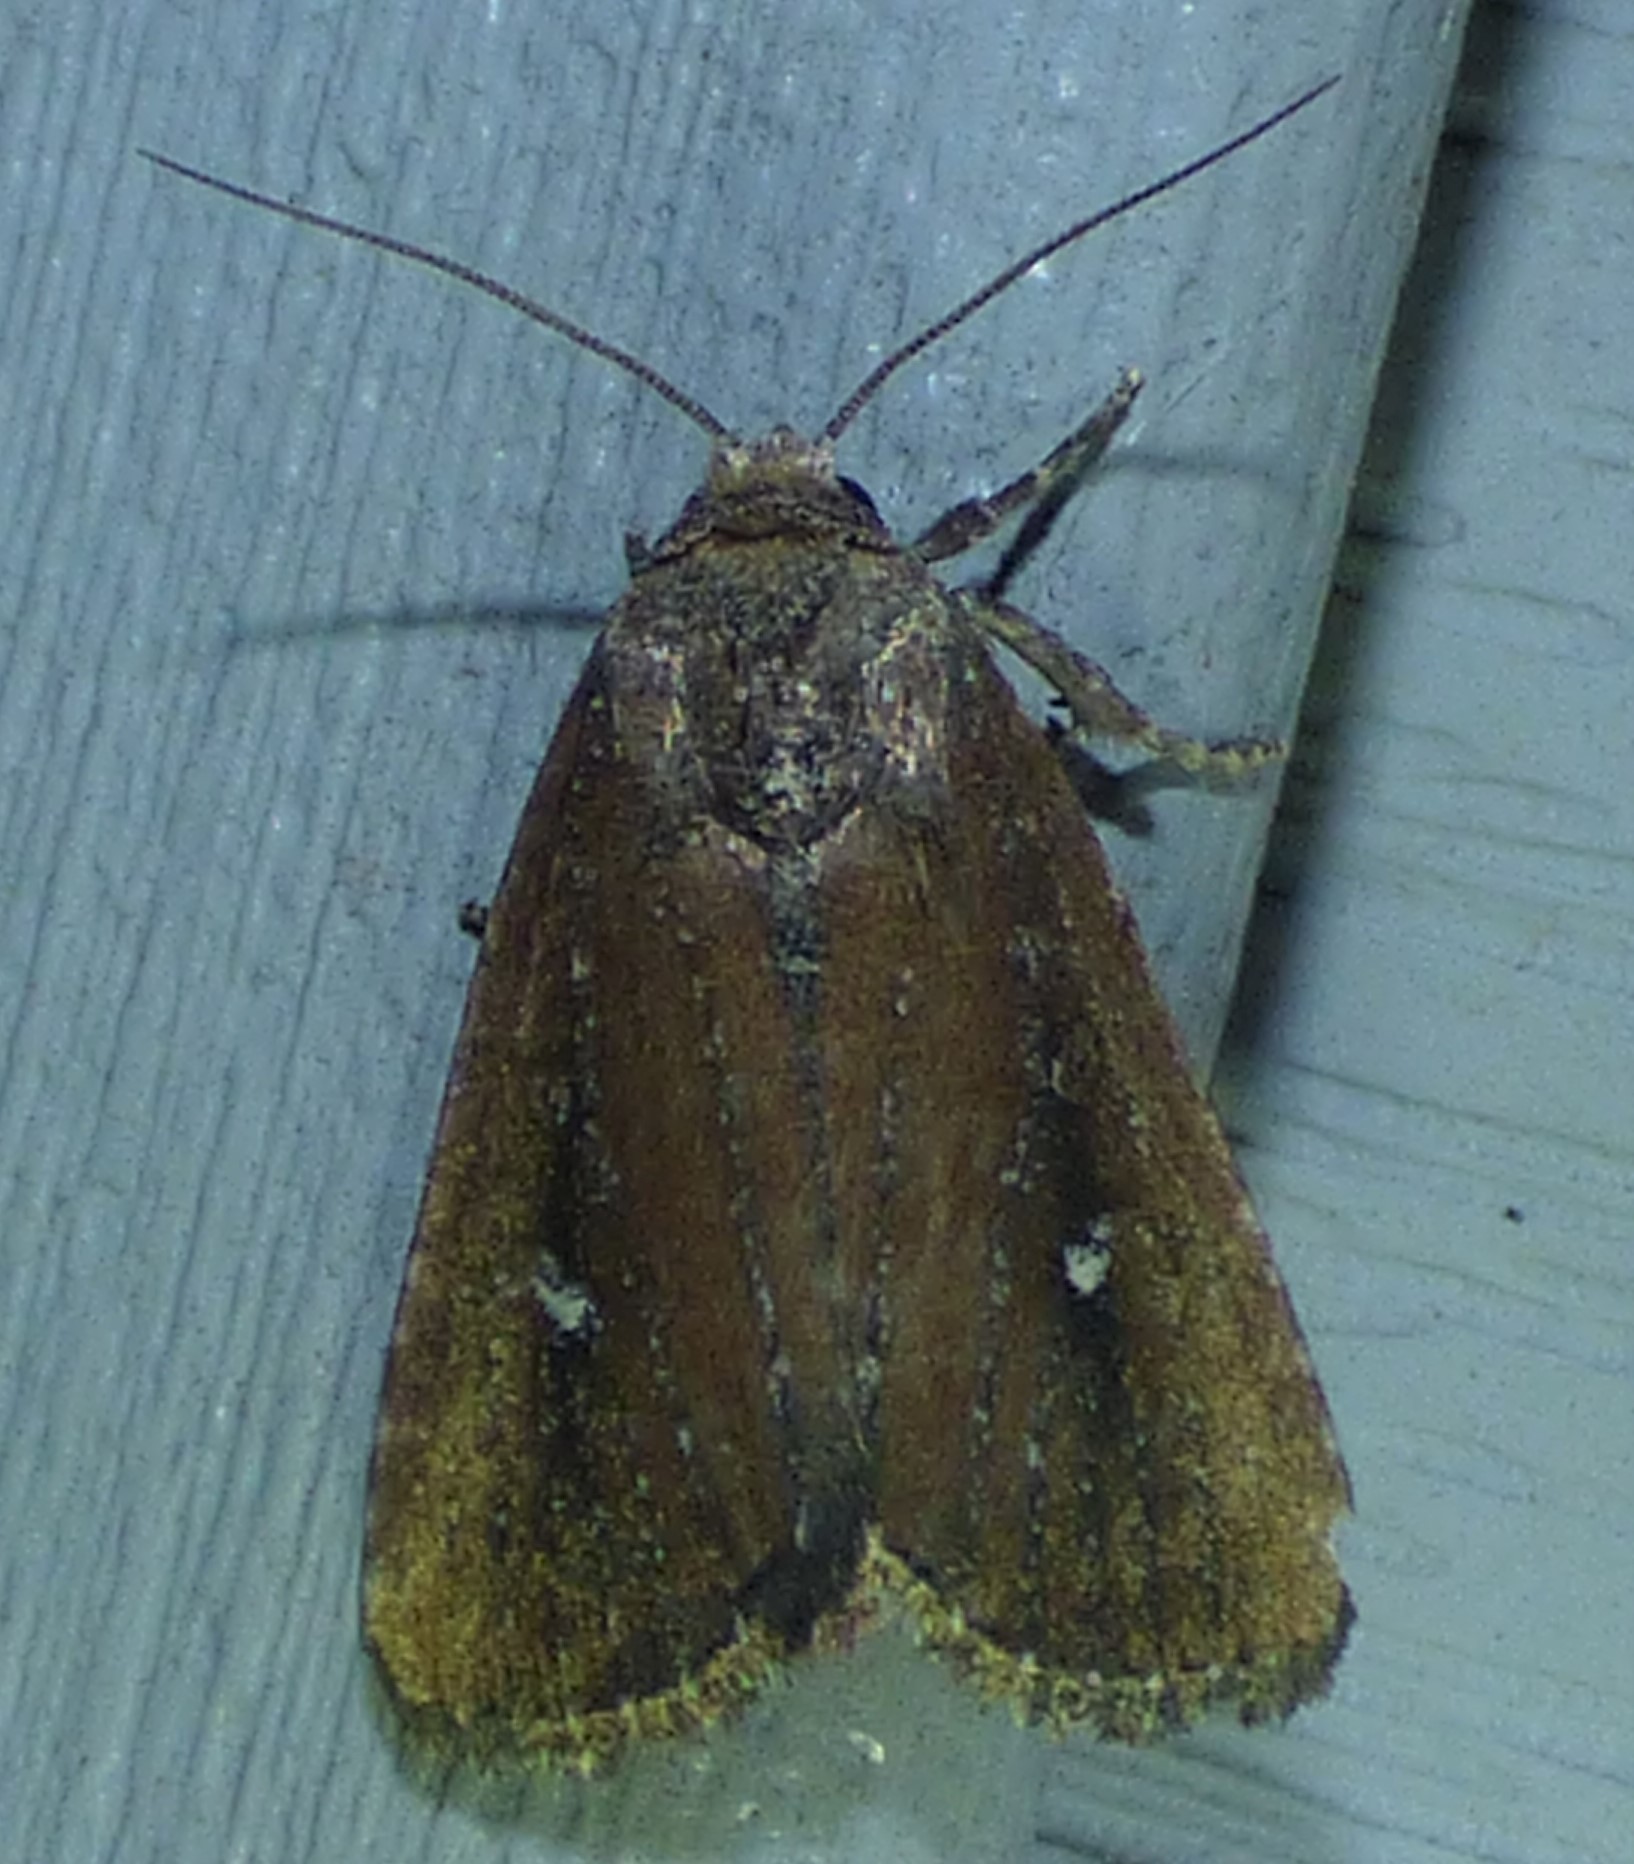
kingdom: Animalia
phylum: Arthropoda
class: Insecta
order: Lepidoptera
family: Noctuidae
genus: Condica
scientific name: Condica videns
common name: White-dotted groundling
